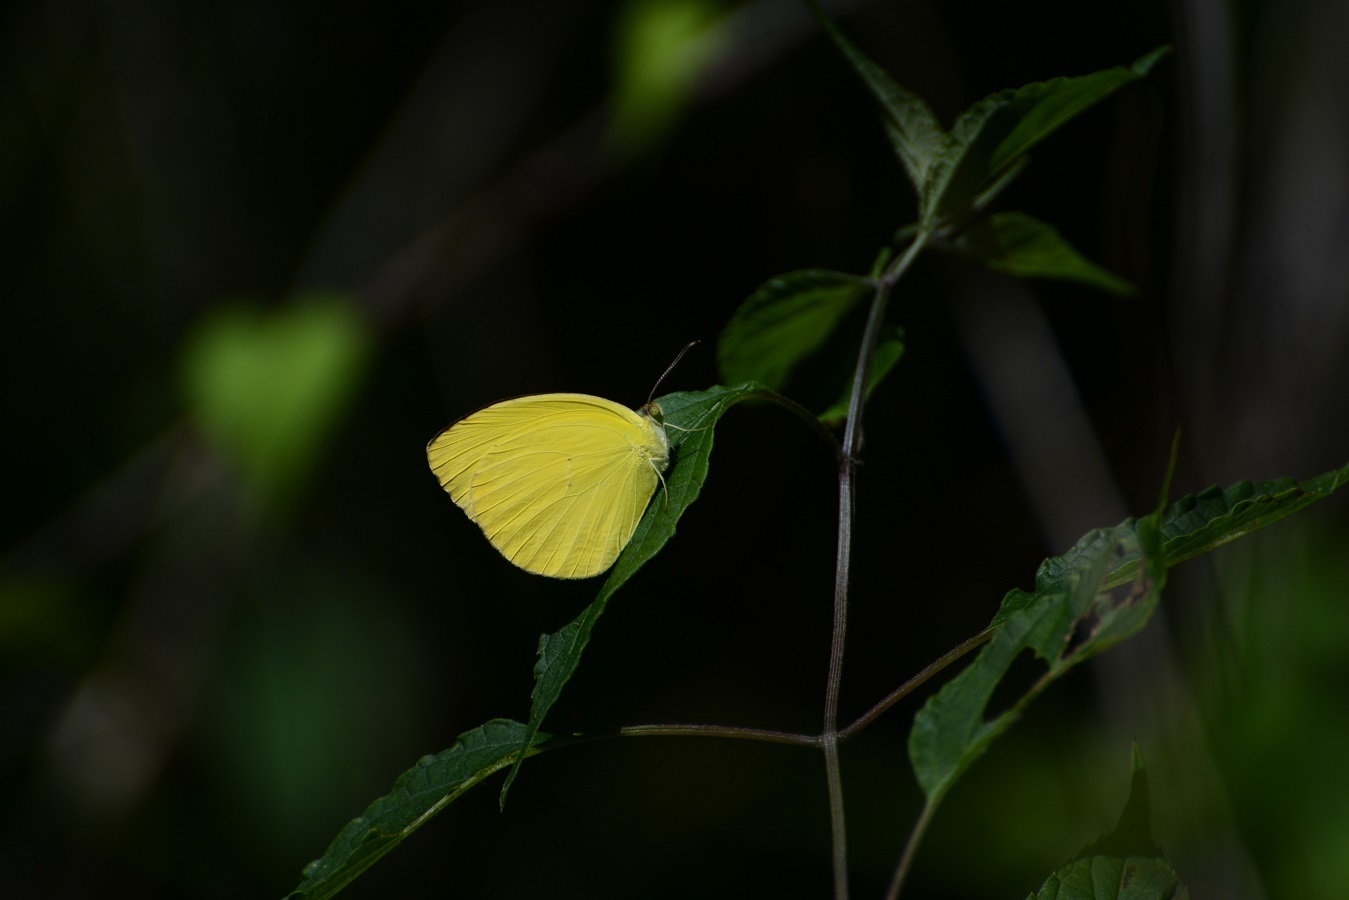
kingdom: Animalia
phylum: Arthropoda
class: Insecta
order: Lepidoptera
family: Pieridae
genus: Pyrisitia
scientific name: Pyrisitia nise
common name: Mimosa yellow
